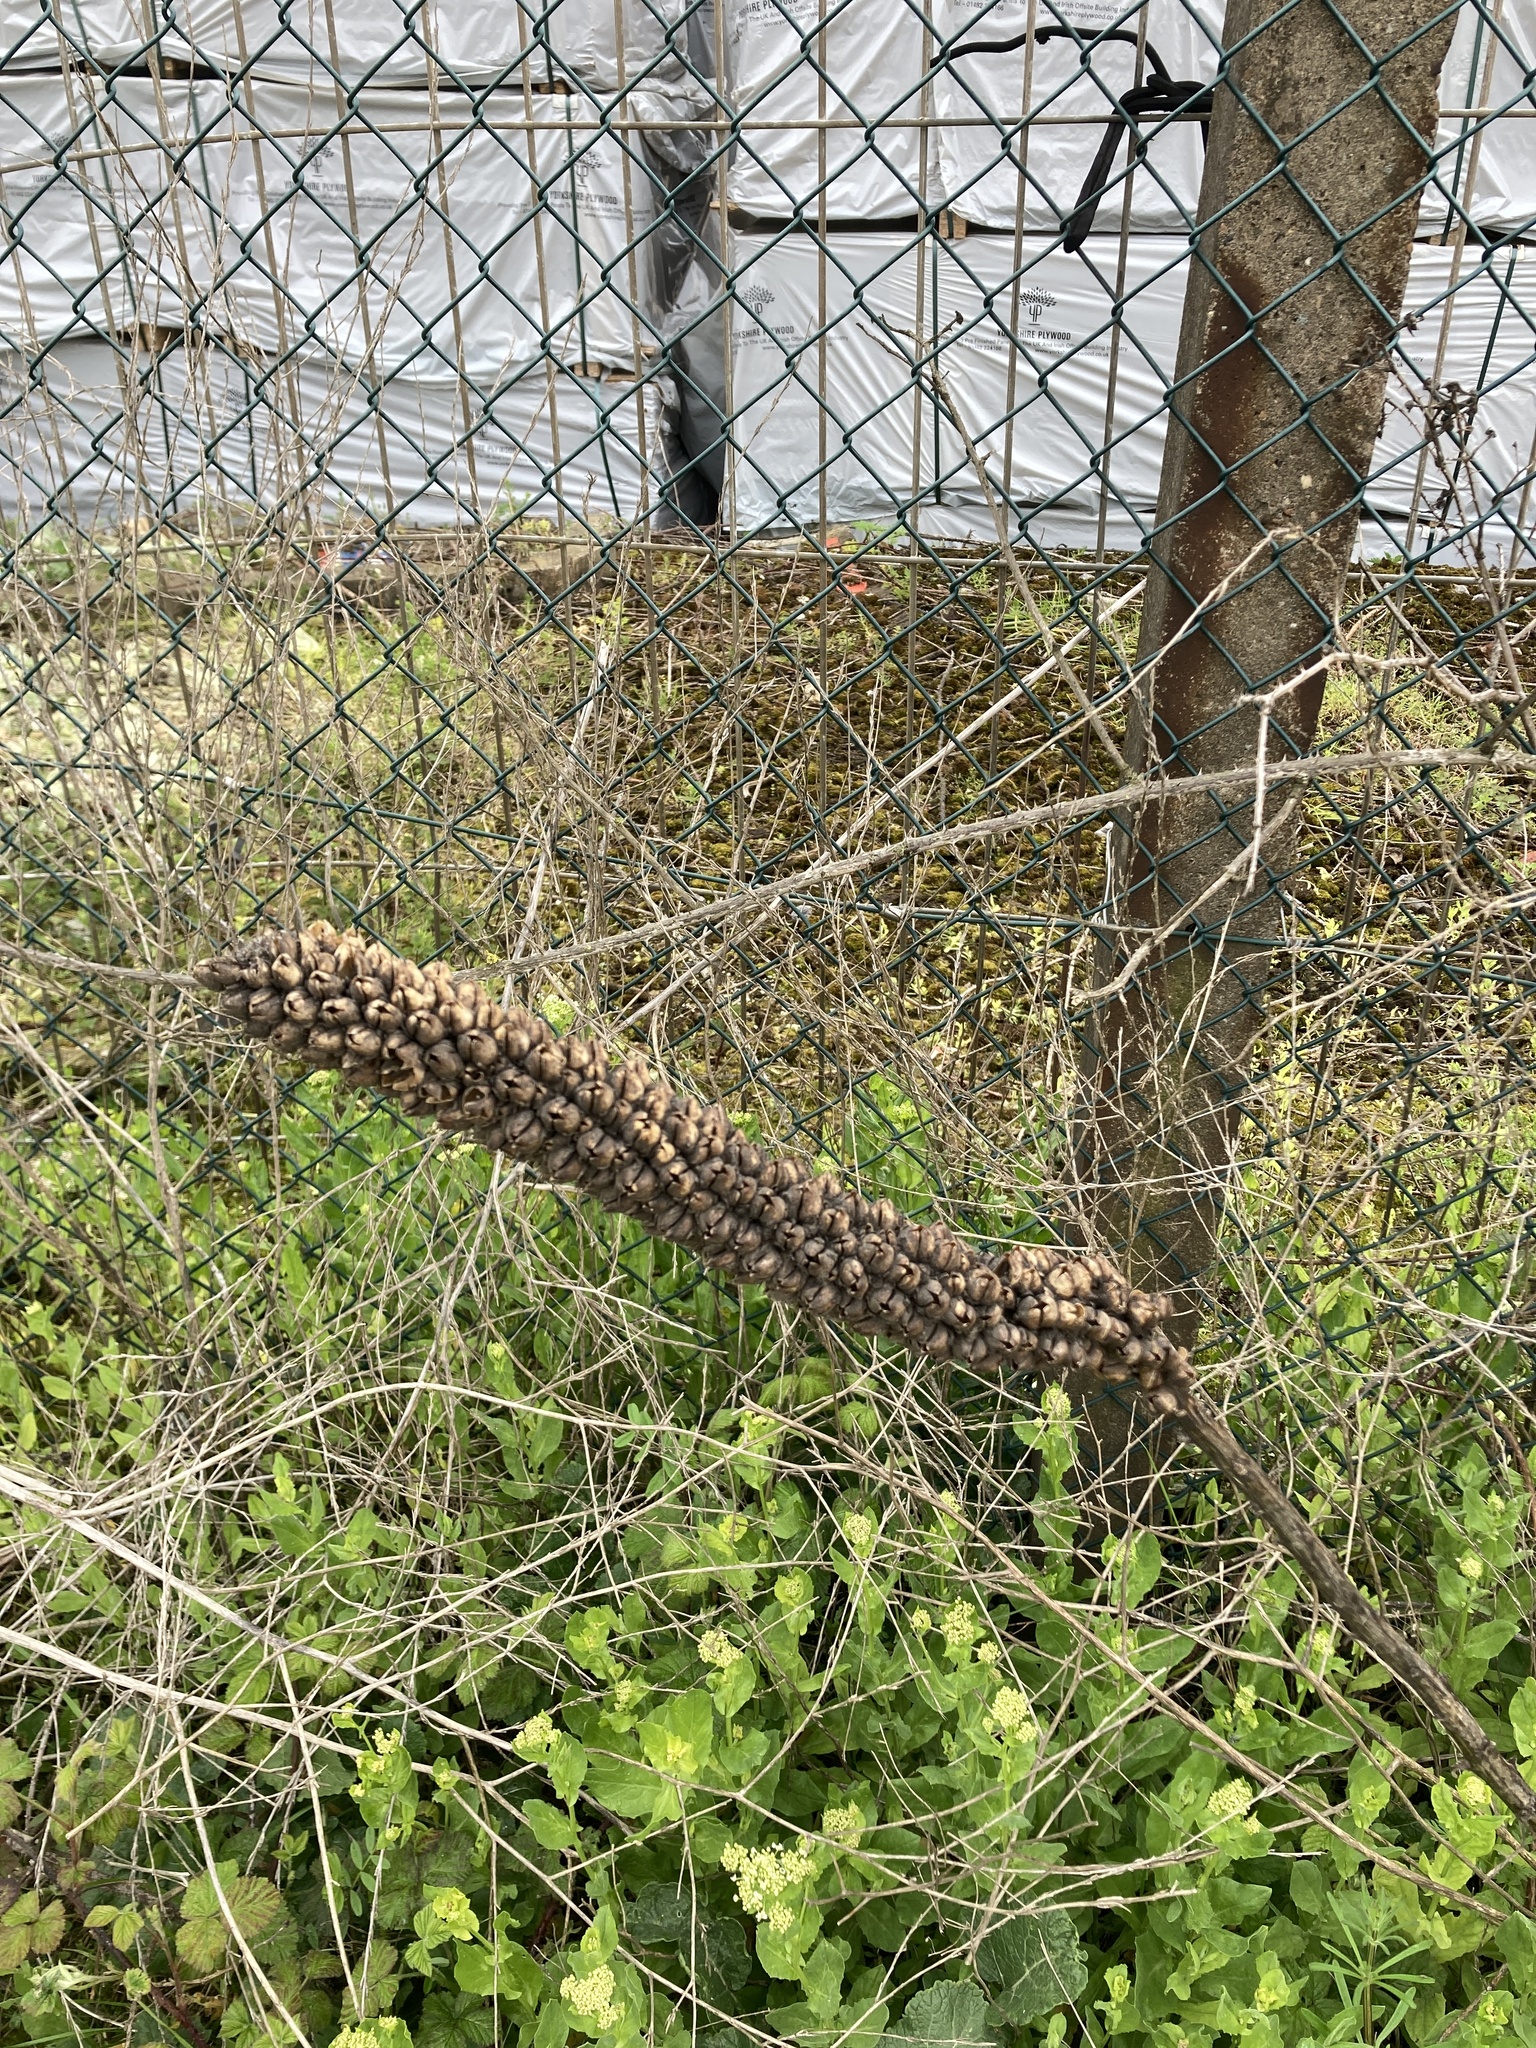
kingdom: Plantae
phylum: Tracheophyta
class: Magnoliopsida
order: Lamiales
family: Scrophulariaceae
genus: Verbascum
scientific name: Verbascum thapsus
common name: Common mullein
